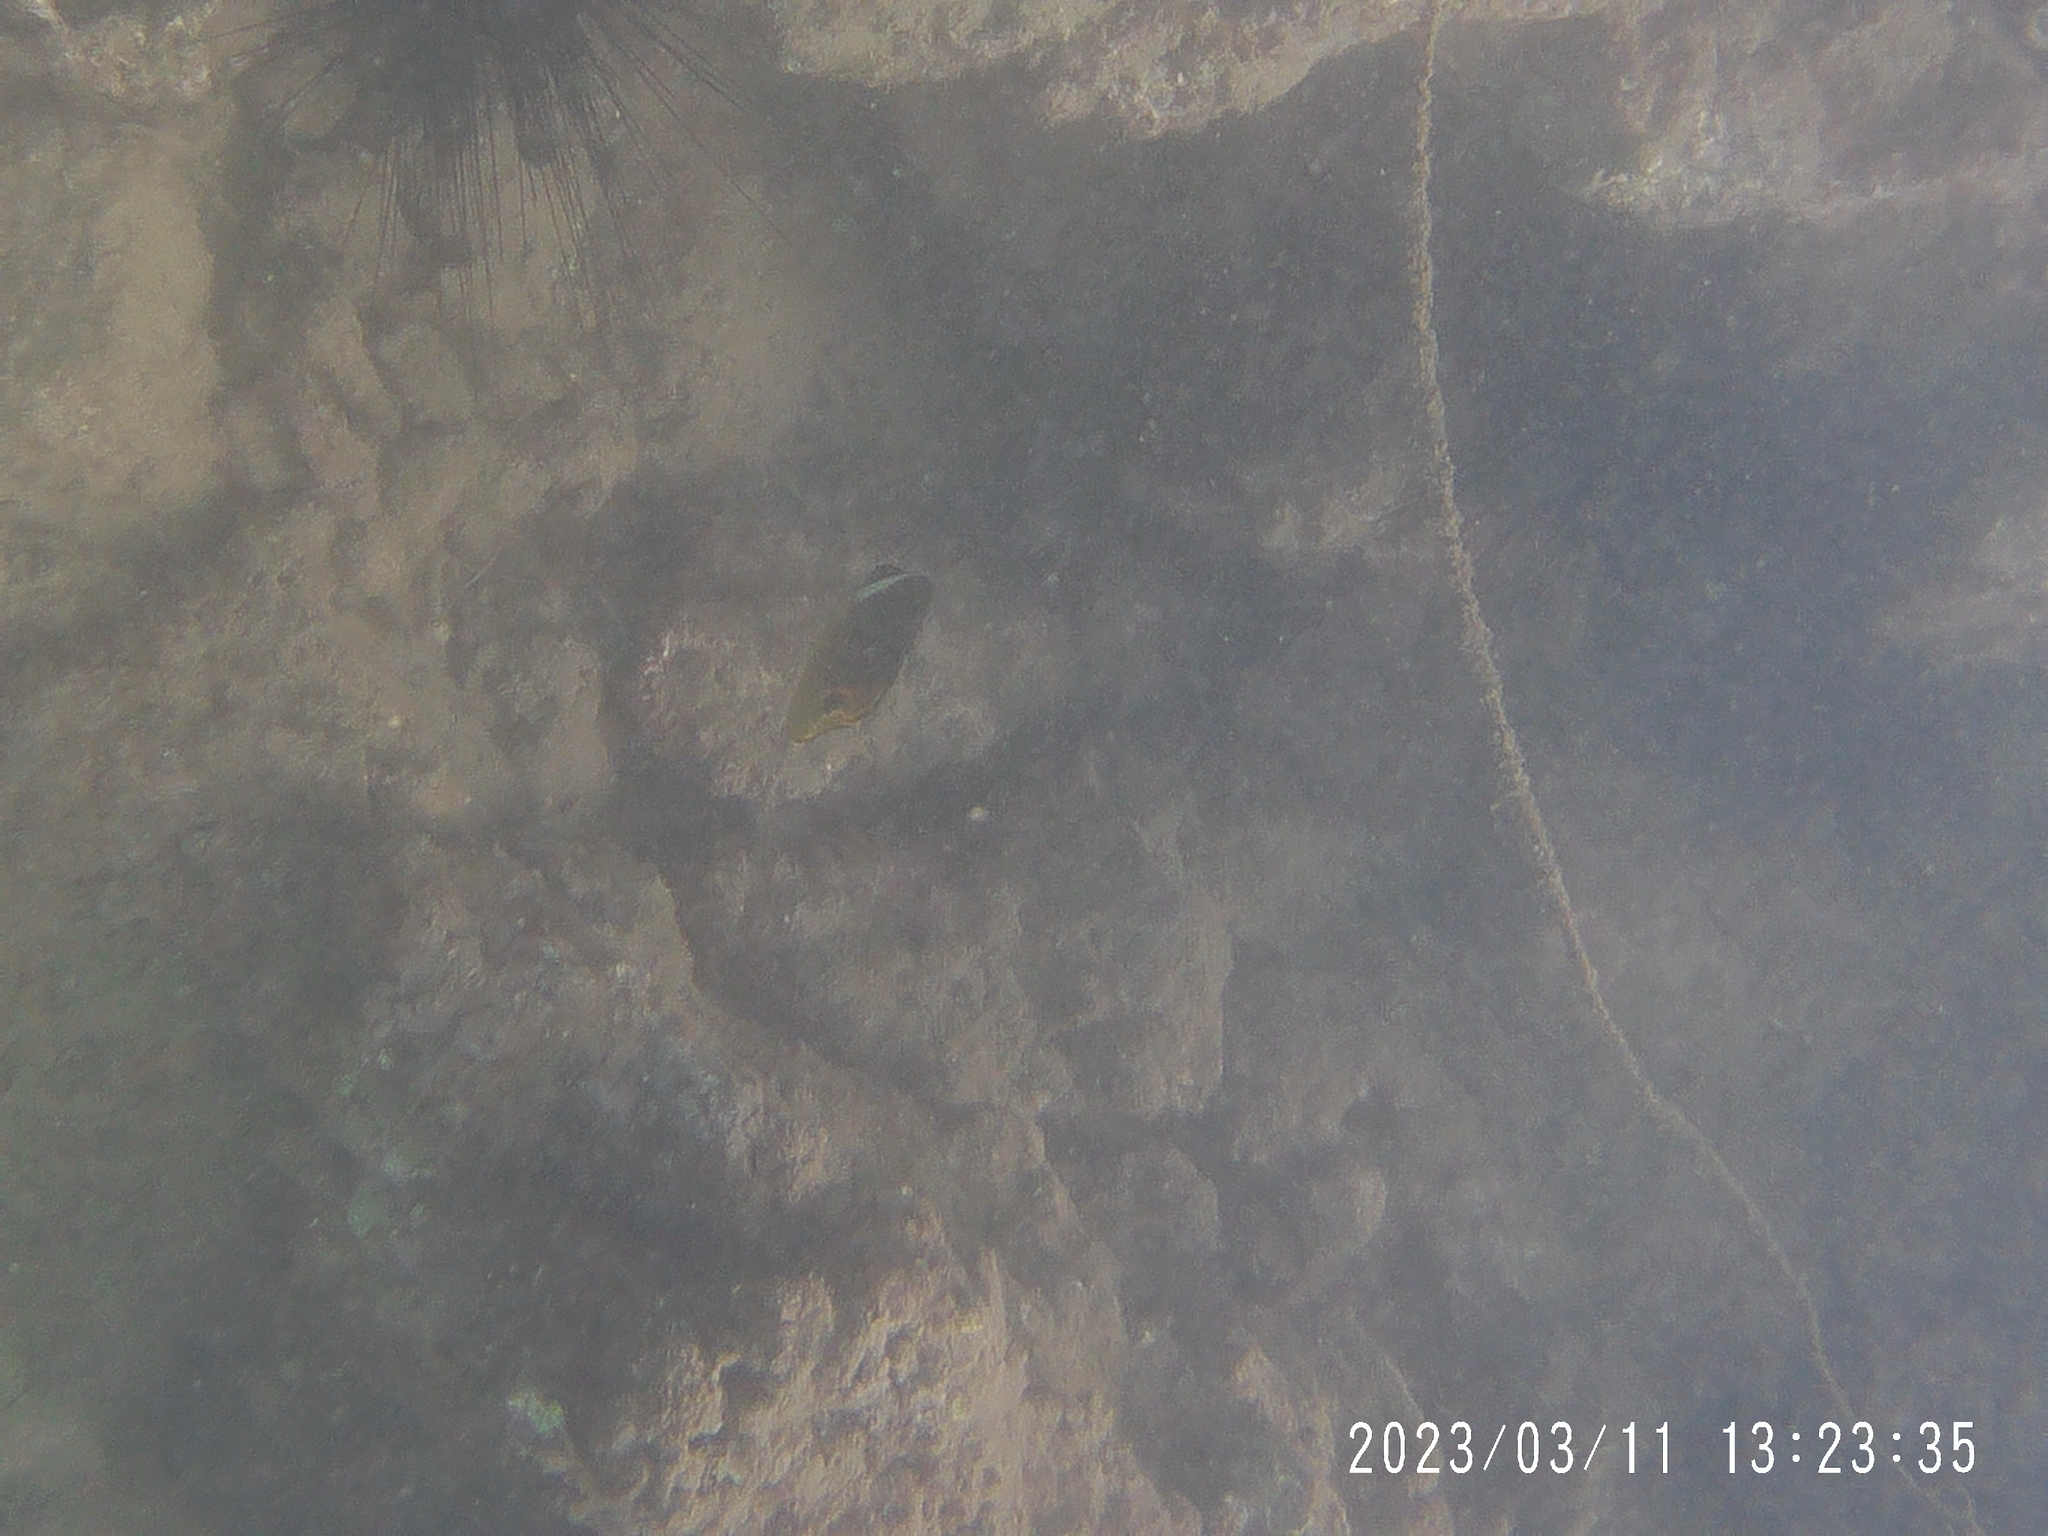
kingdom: Animalia
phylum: Chordata
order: Perciformes
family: Chaetodontidae
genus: Chaetodon
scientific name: Chaetodon lunula
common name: Raccoon butterflyfish
